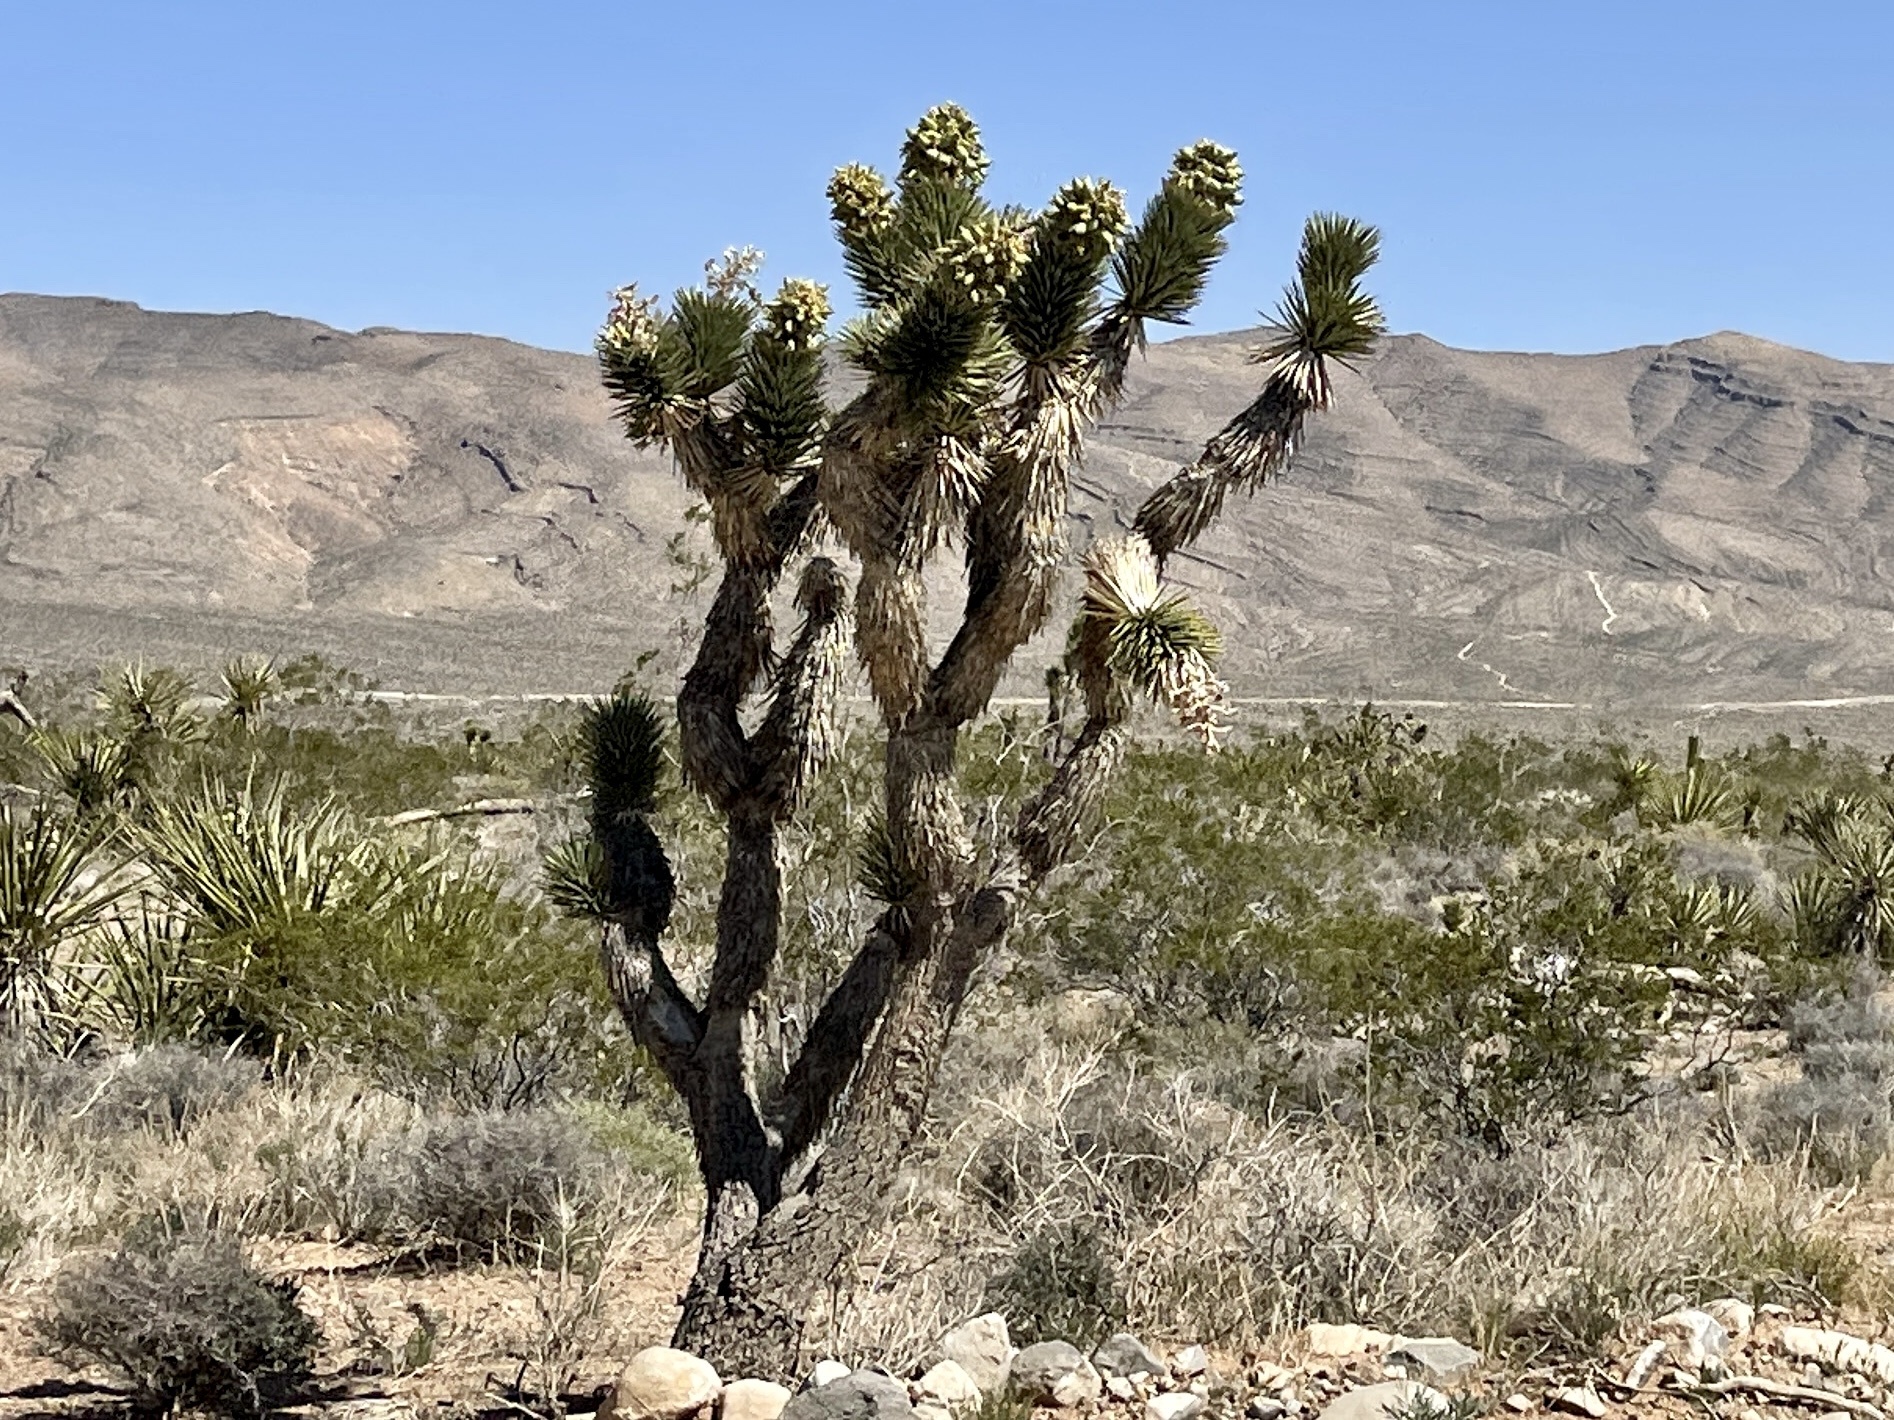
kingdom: Plantae
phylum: Tracheophyta
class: Liliopsida
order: Asparagales
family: Asparagaceae
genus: Yucca
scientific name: Yucca brevifolia
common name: Joshua tree
